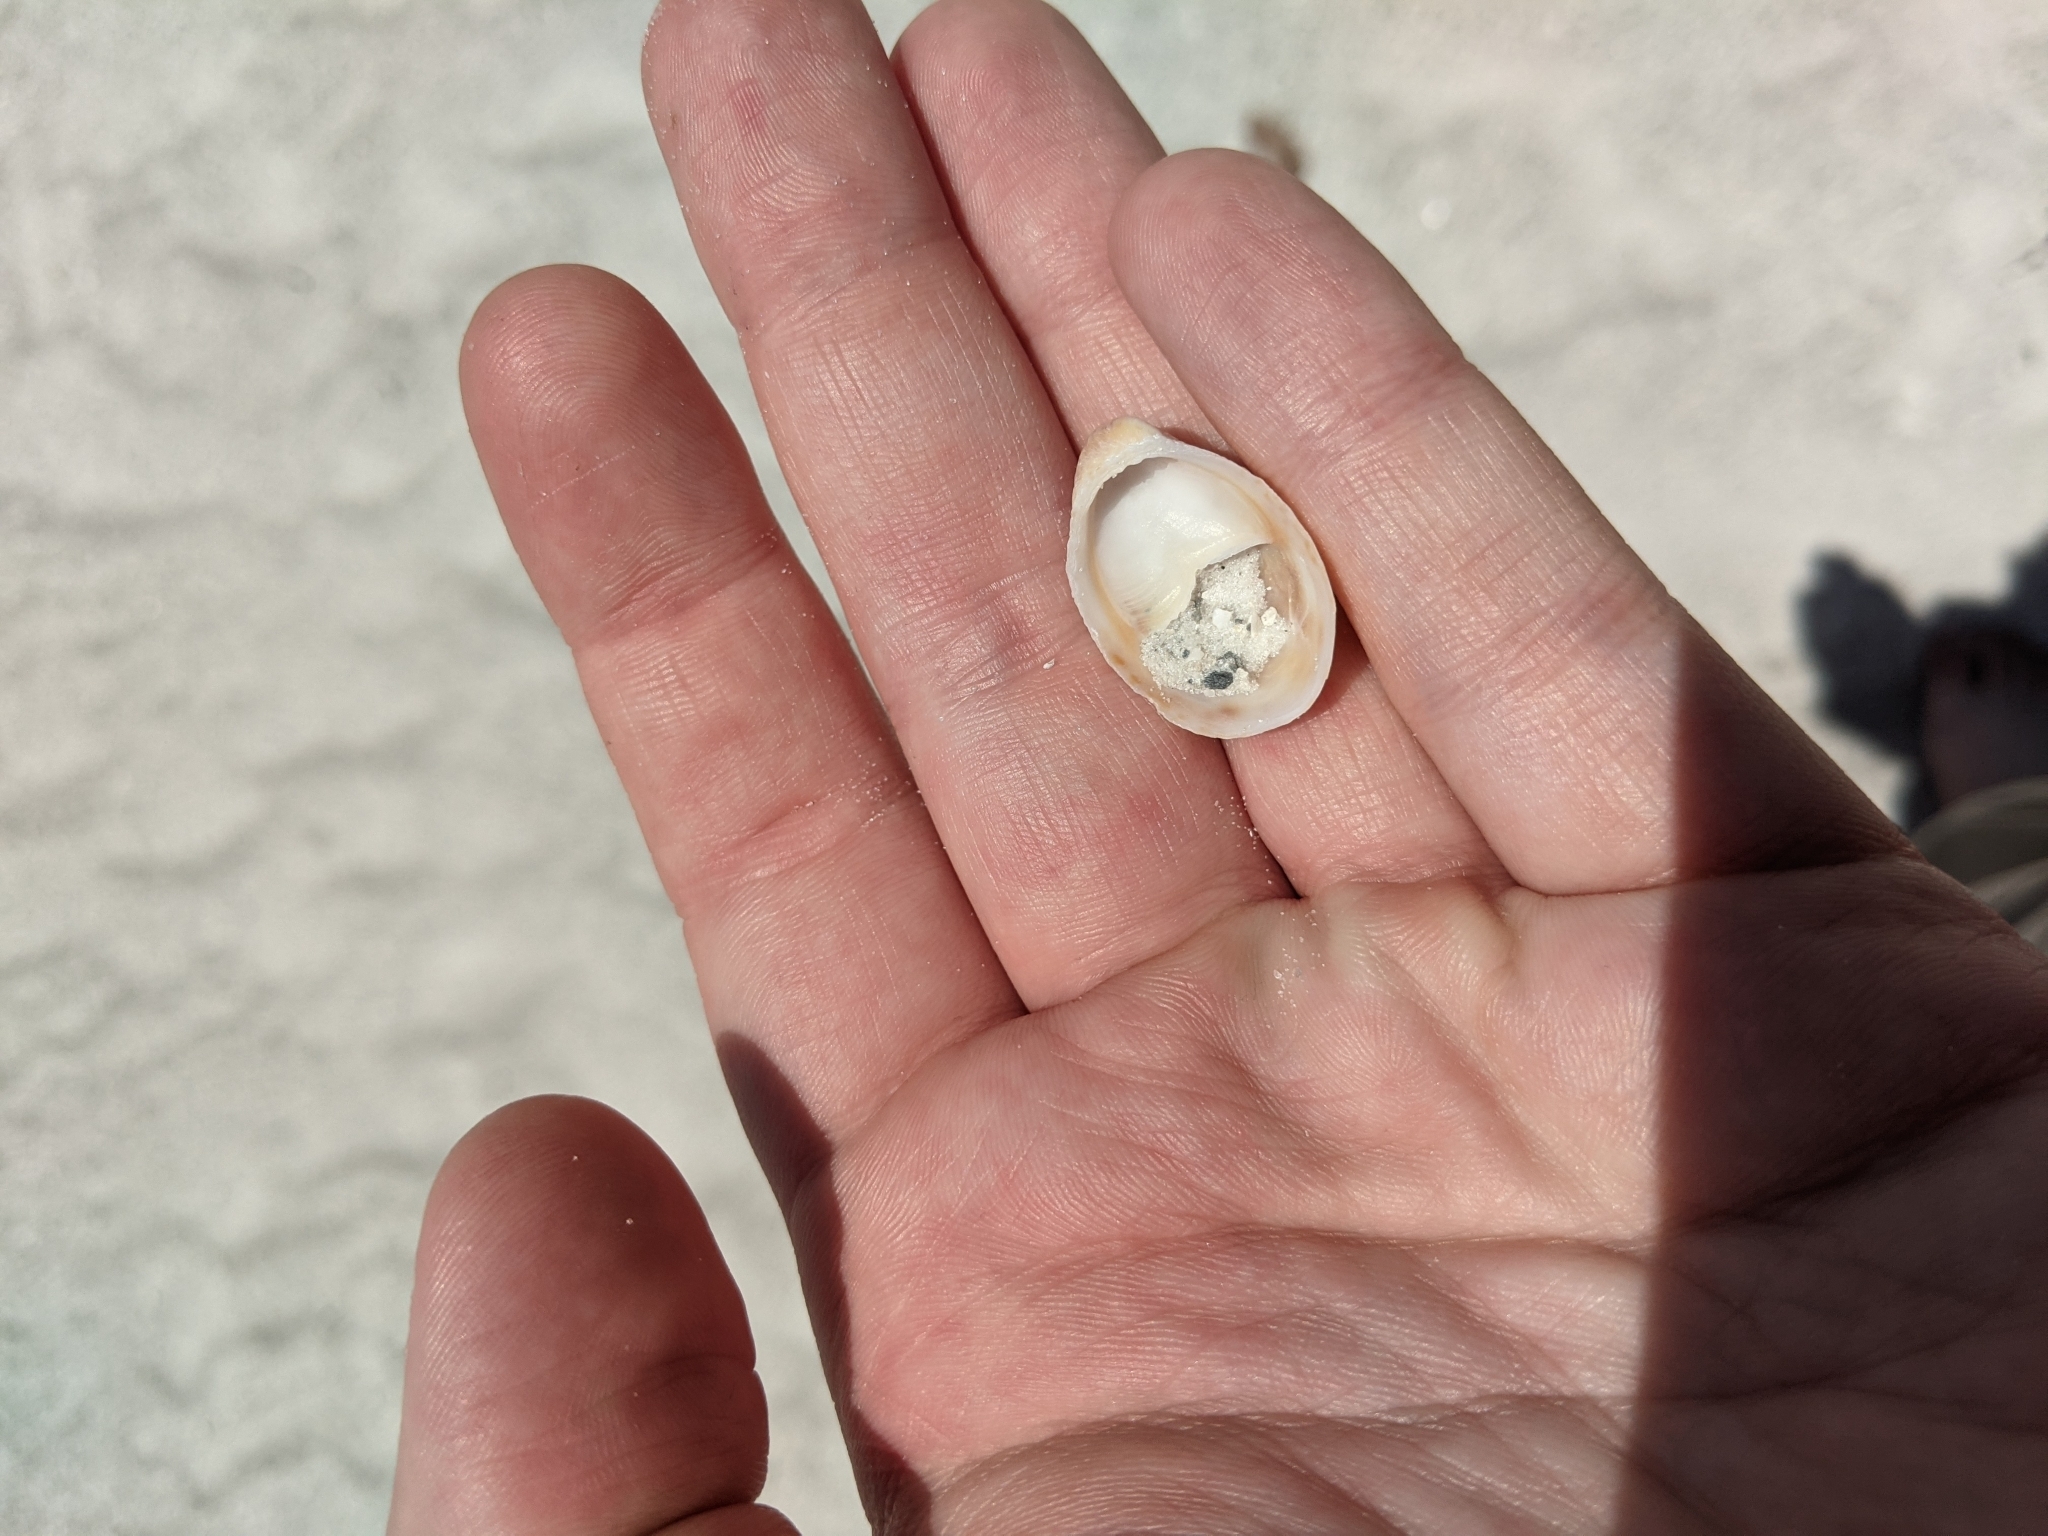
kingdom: Animalia
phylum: Mollusca
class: Gastropoda
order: Littorinimorpha
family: Calyptraeidae
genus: Crepidula
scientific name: Crepidula fornicata
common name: Slipper limpet
